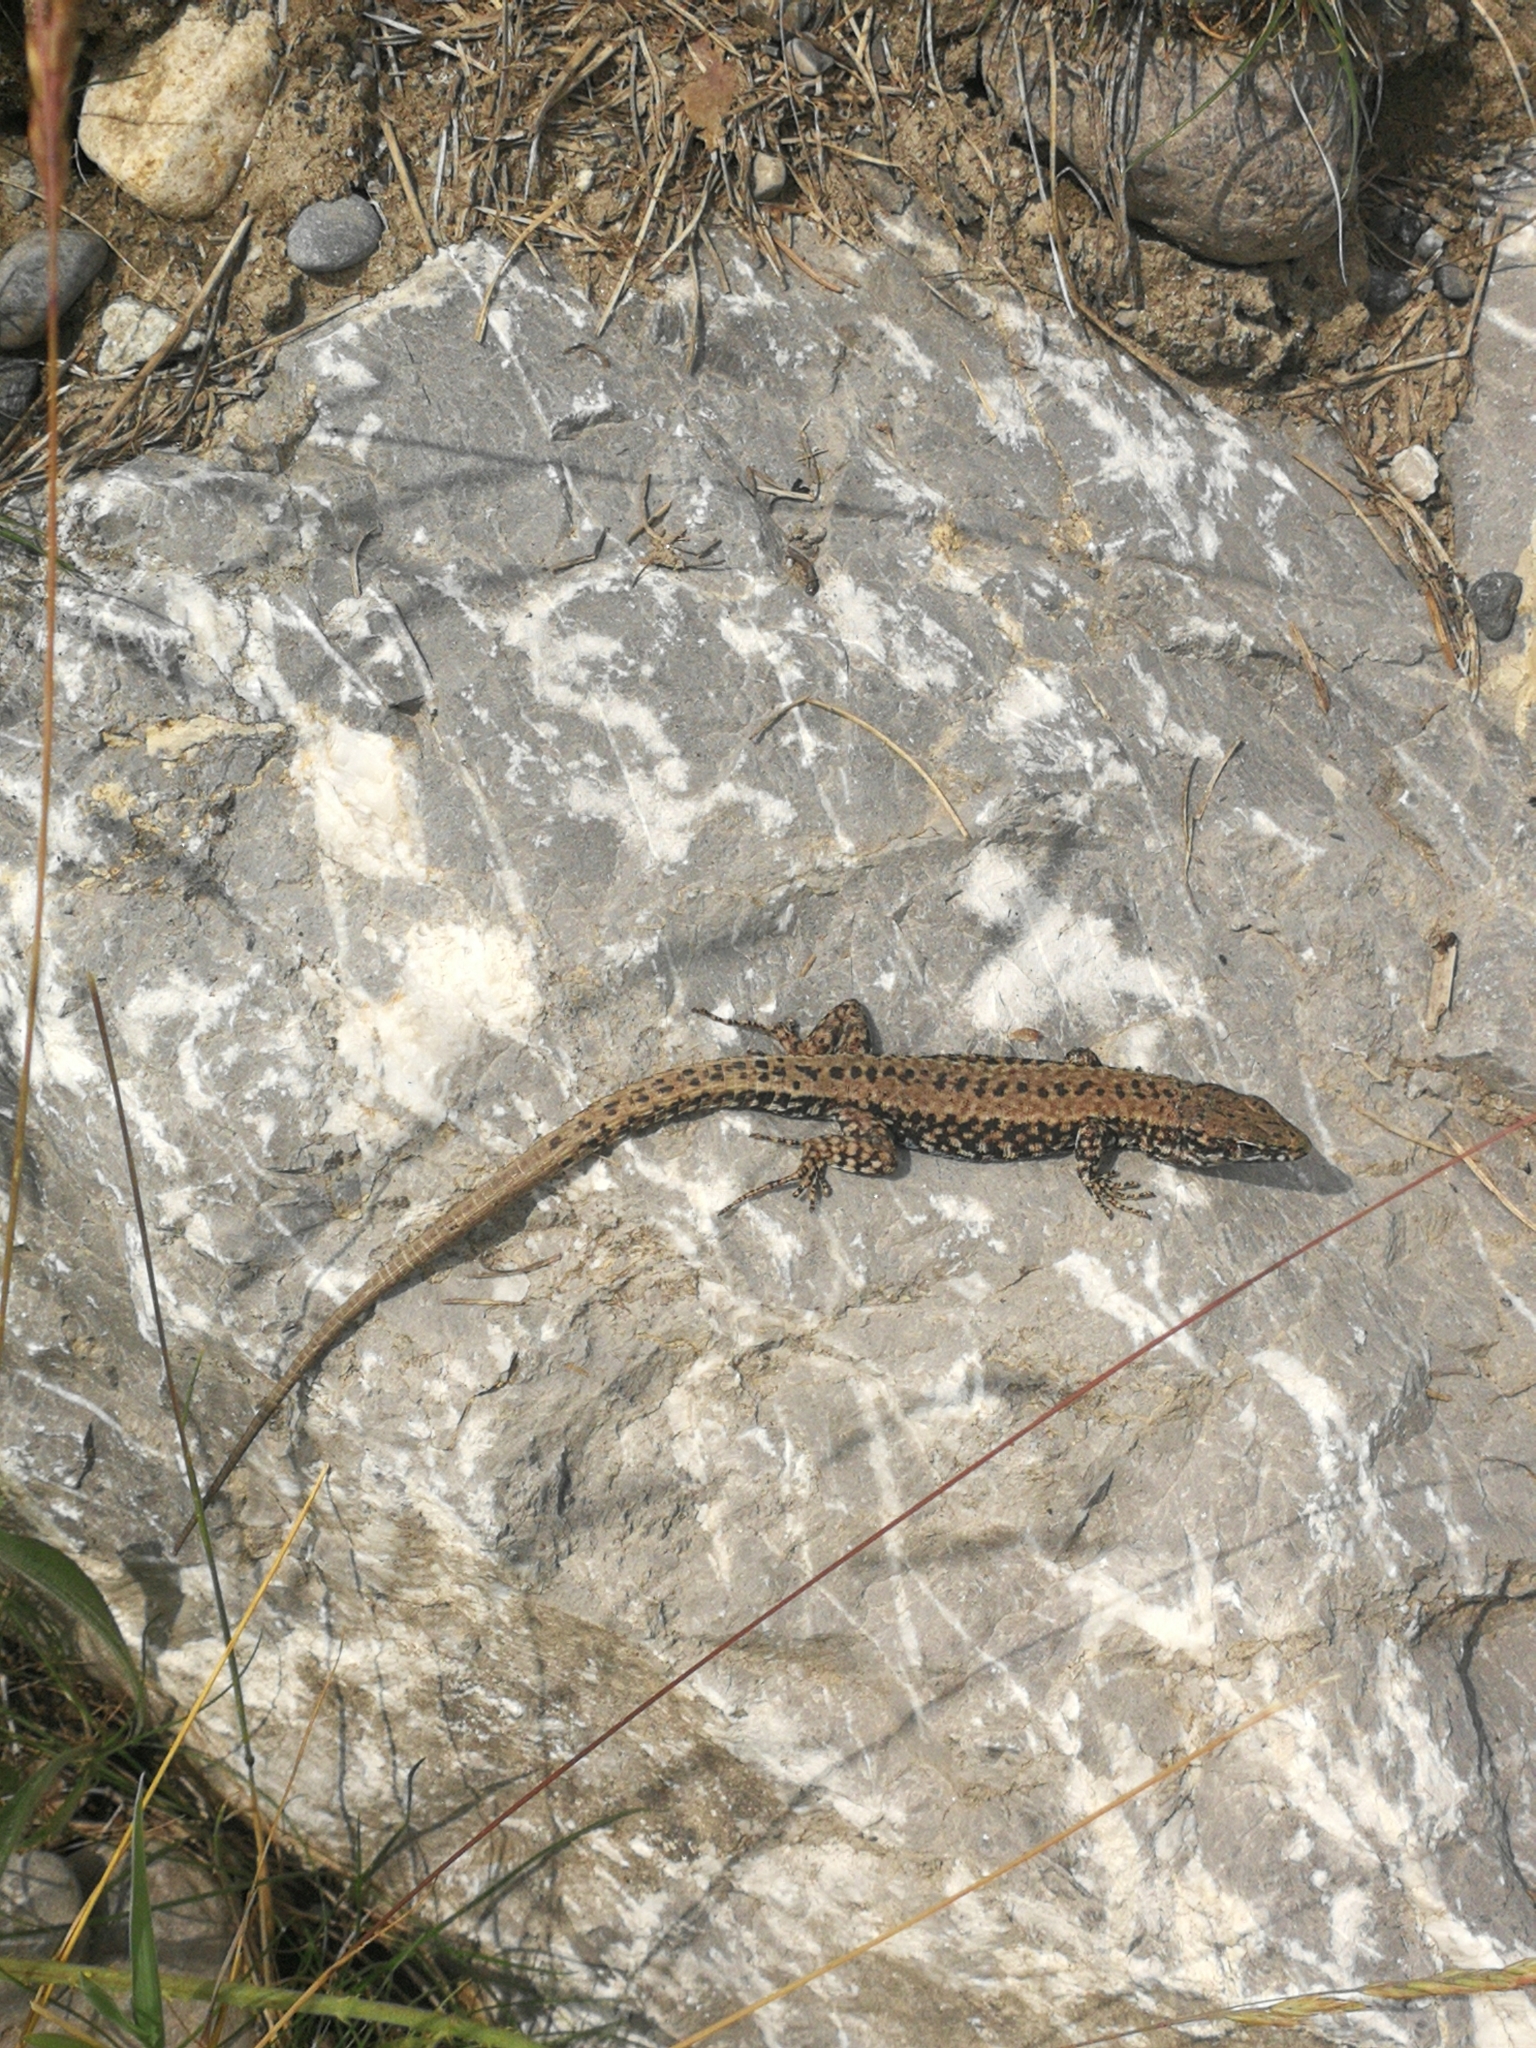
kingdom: Animalia
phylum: Chordata
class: Squamata
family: Lacertidae
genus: Podarcis
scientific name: Podarcis muralis
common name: Common wall lizard
